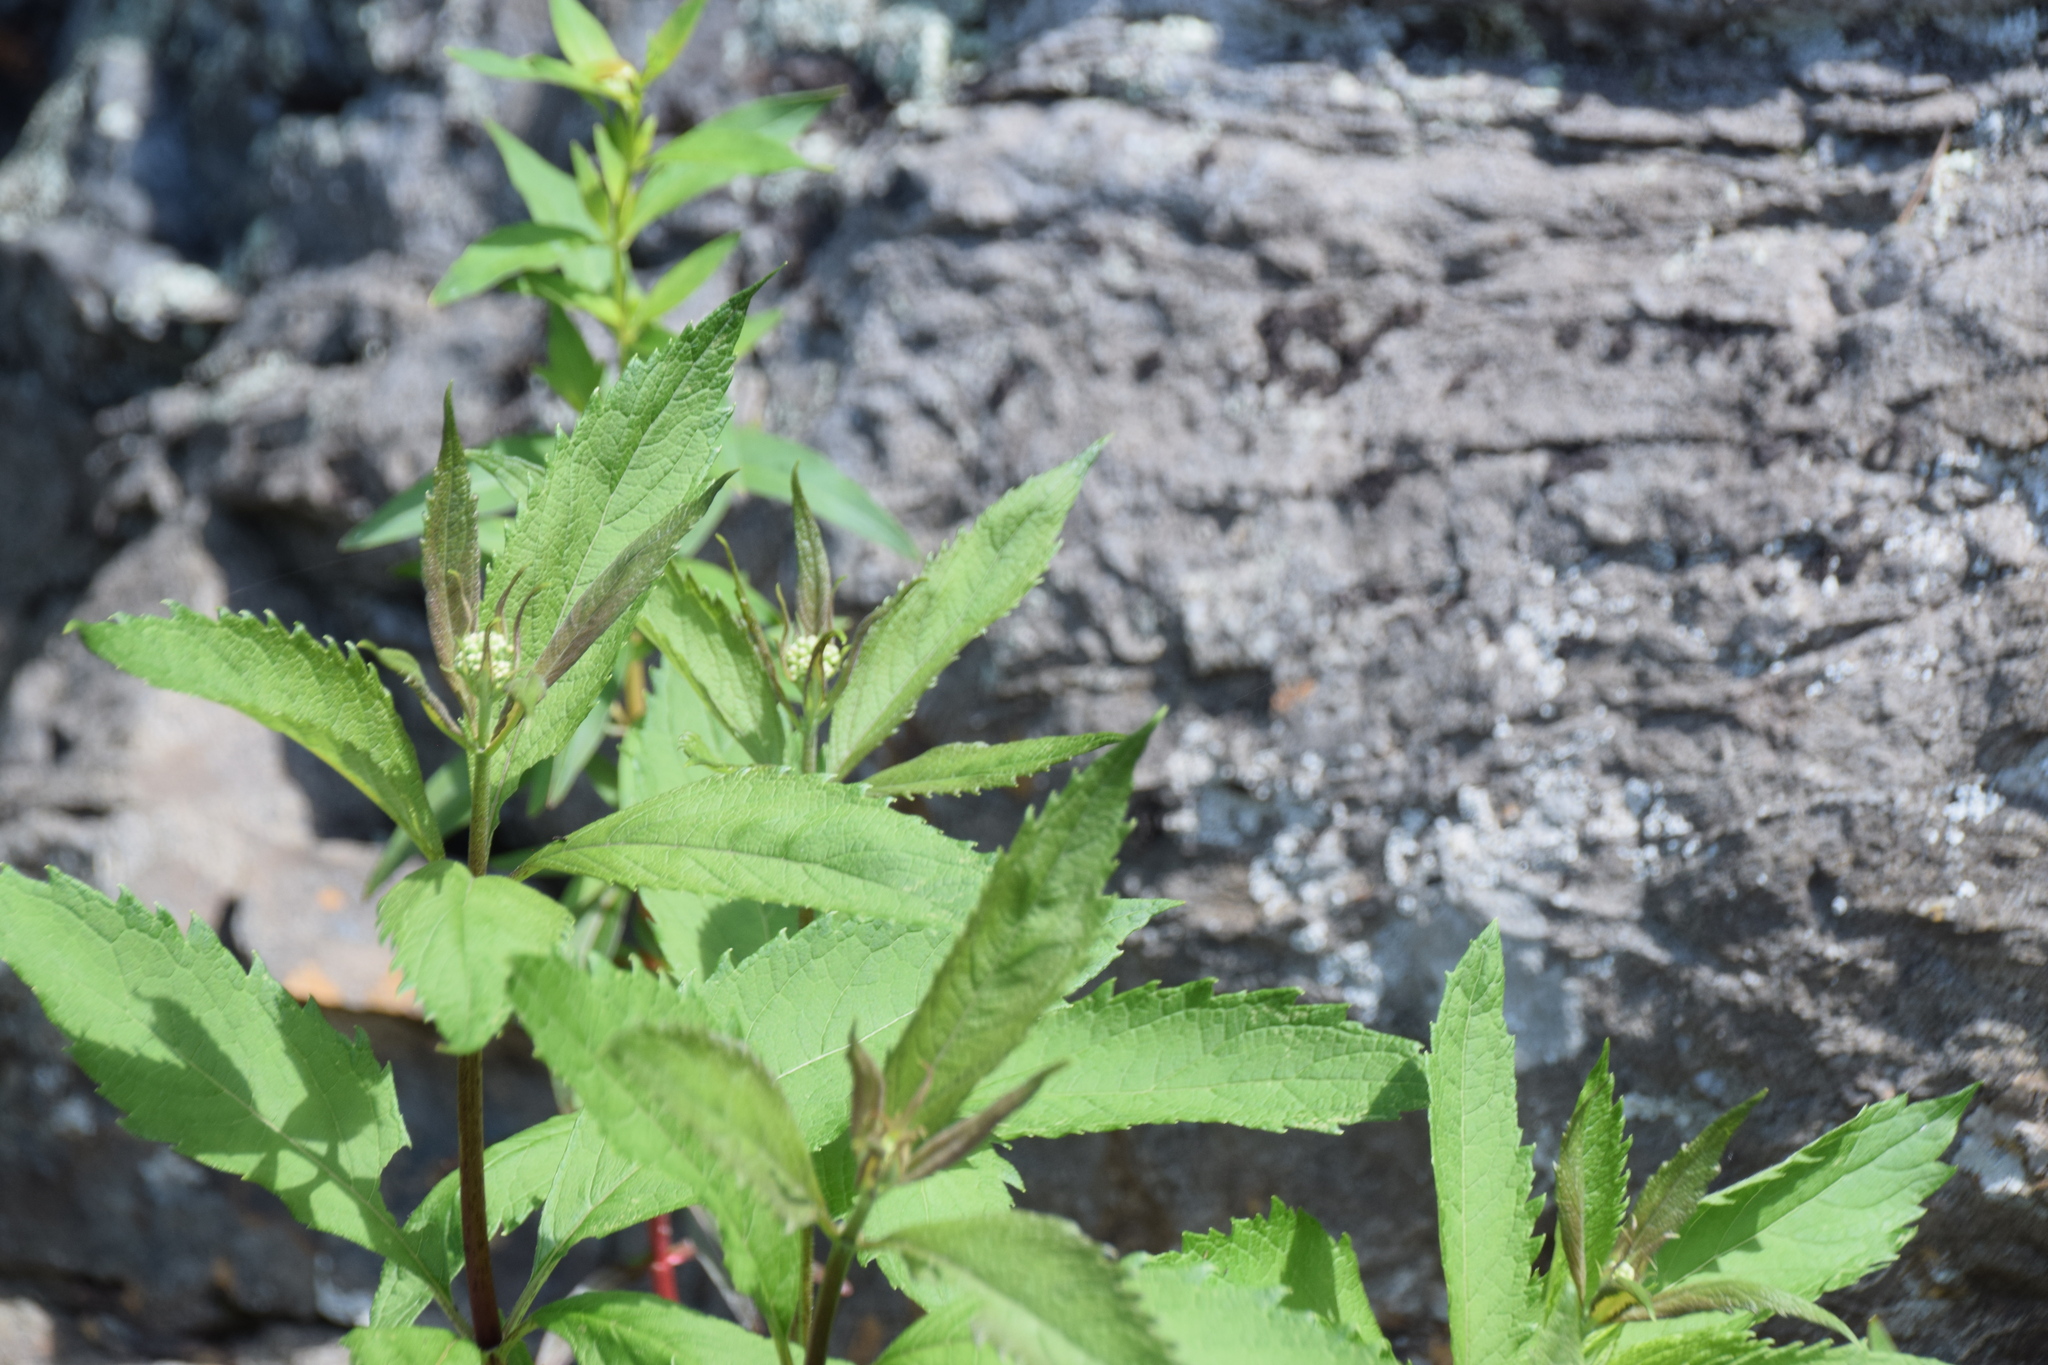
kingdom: Plantae
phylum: Tracheophyta
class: Magnoliopsida
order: Asterales
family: Asteraceae
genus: Eutrochium
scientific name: Eutrochium maculatum
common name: Spotted joe pye weed
